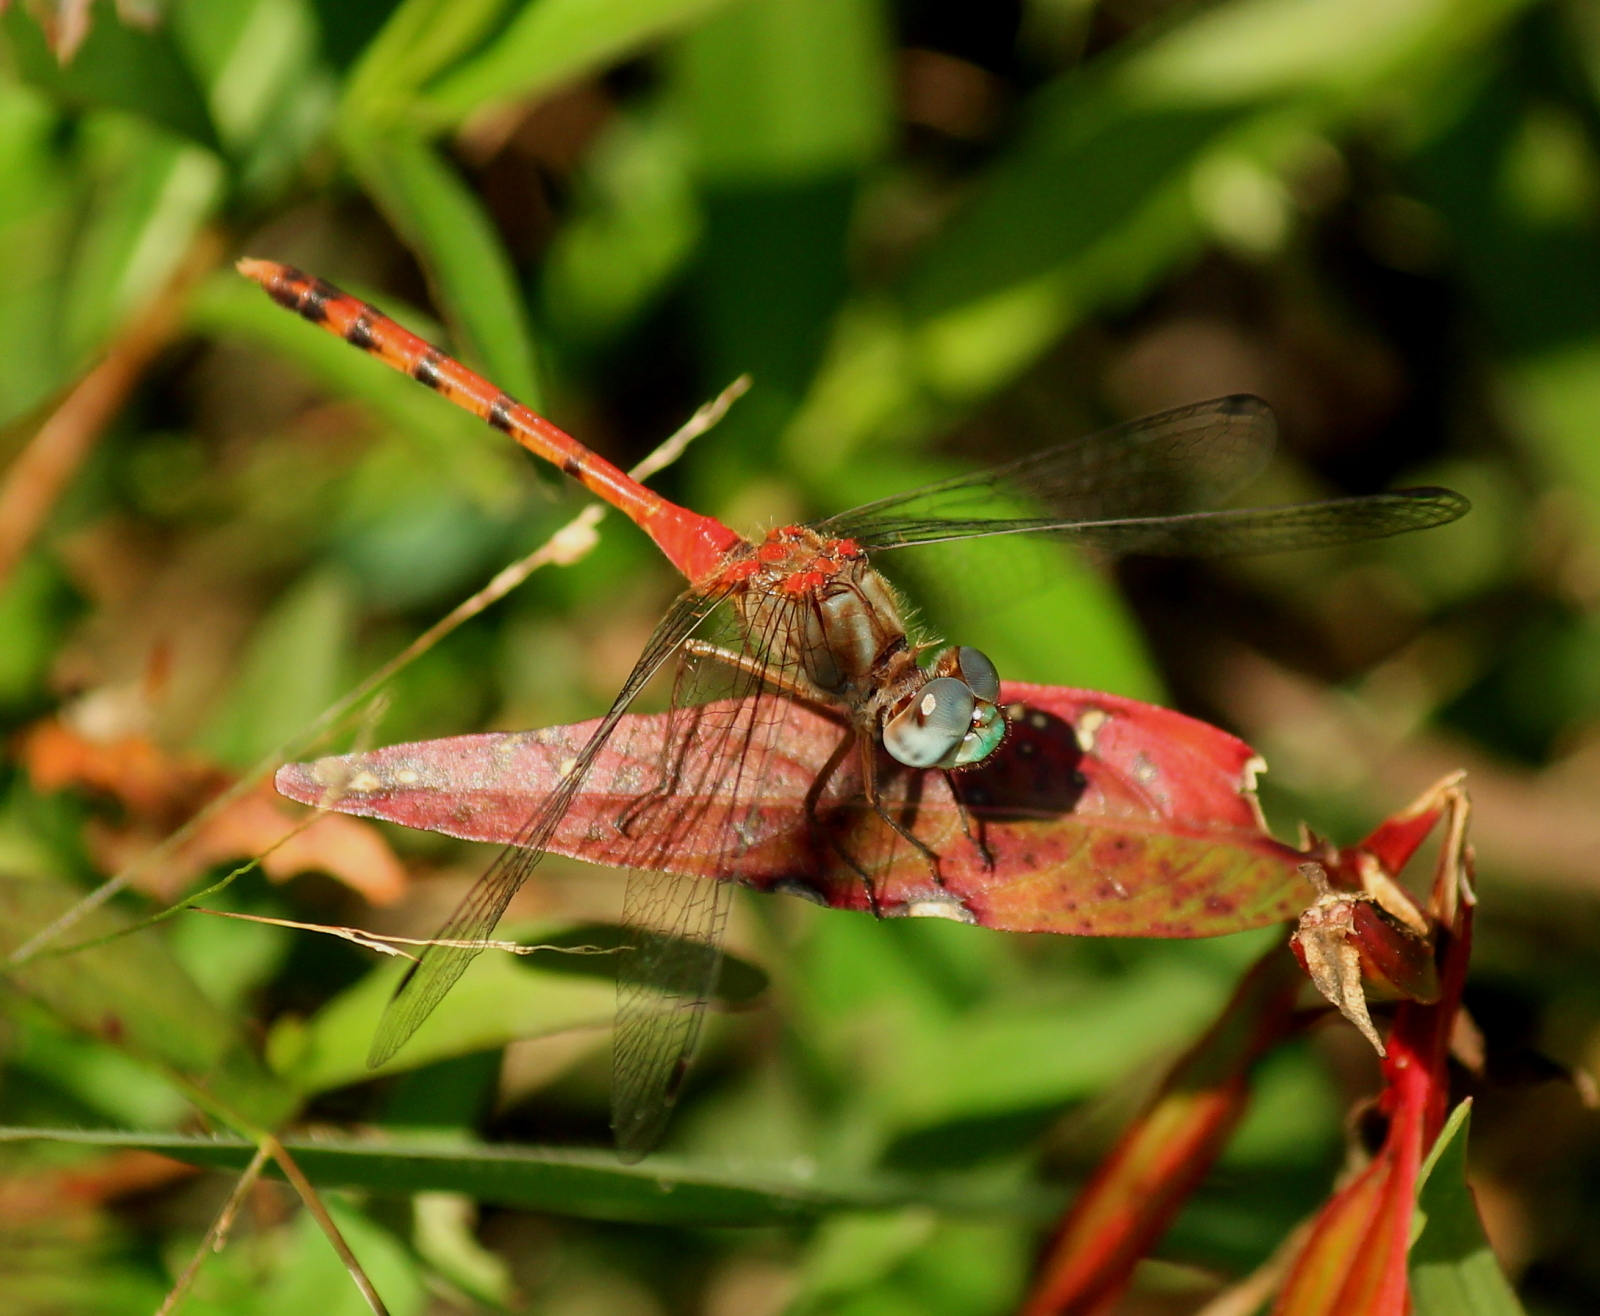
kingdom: Animalia
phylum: Arthropoda
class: Insecta
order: Odonata
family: Libellulidae
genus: Sympetrum
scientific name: Sympetrum ambiguum
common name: Blue-faced meadowhawk
